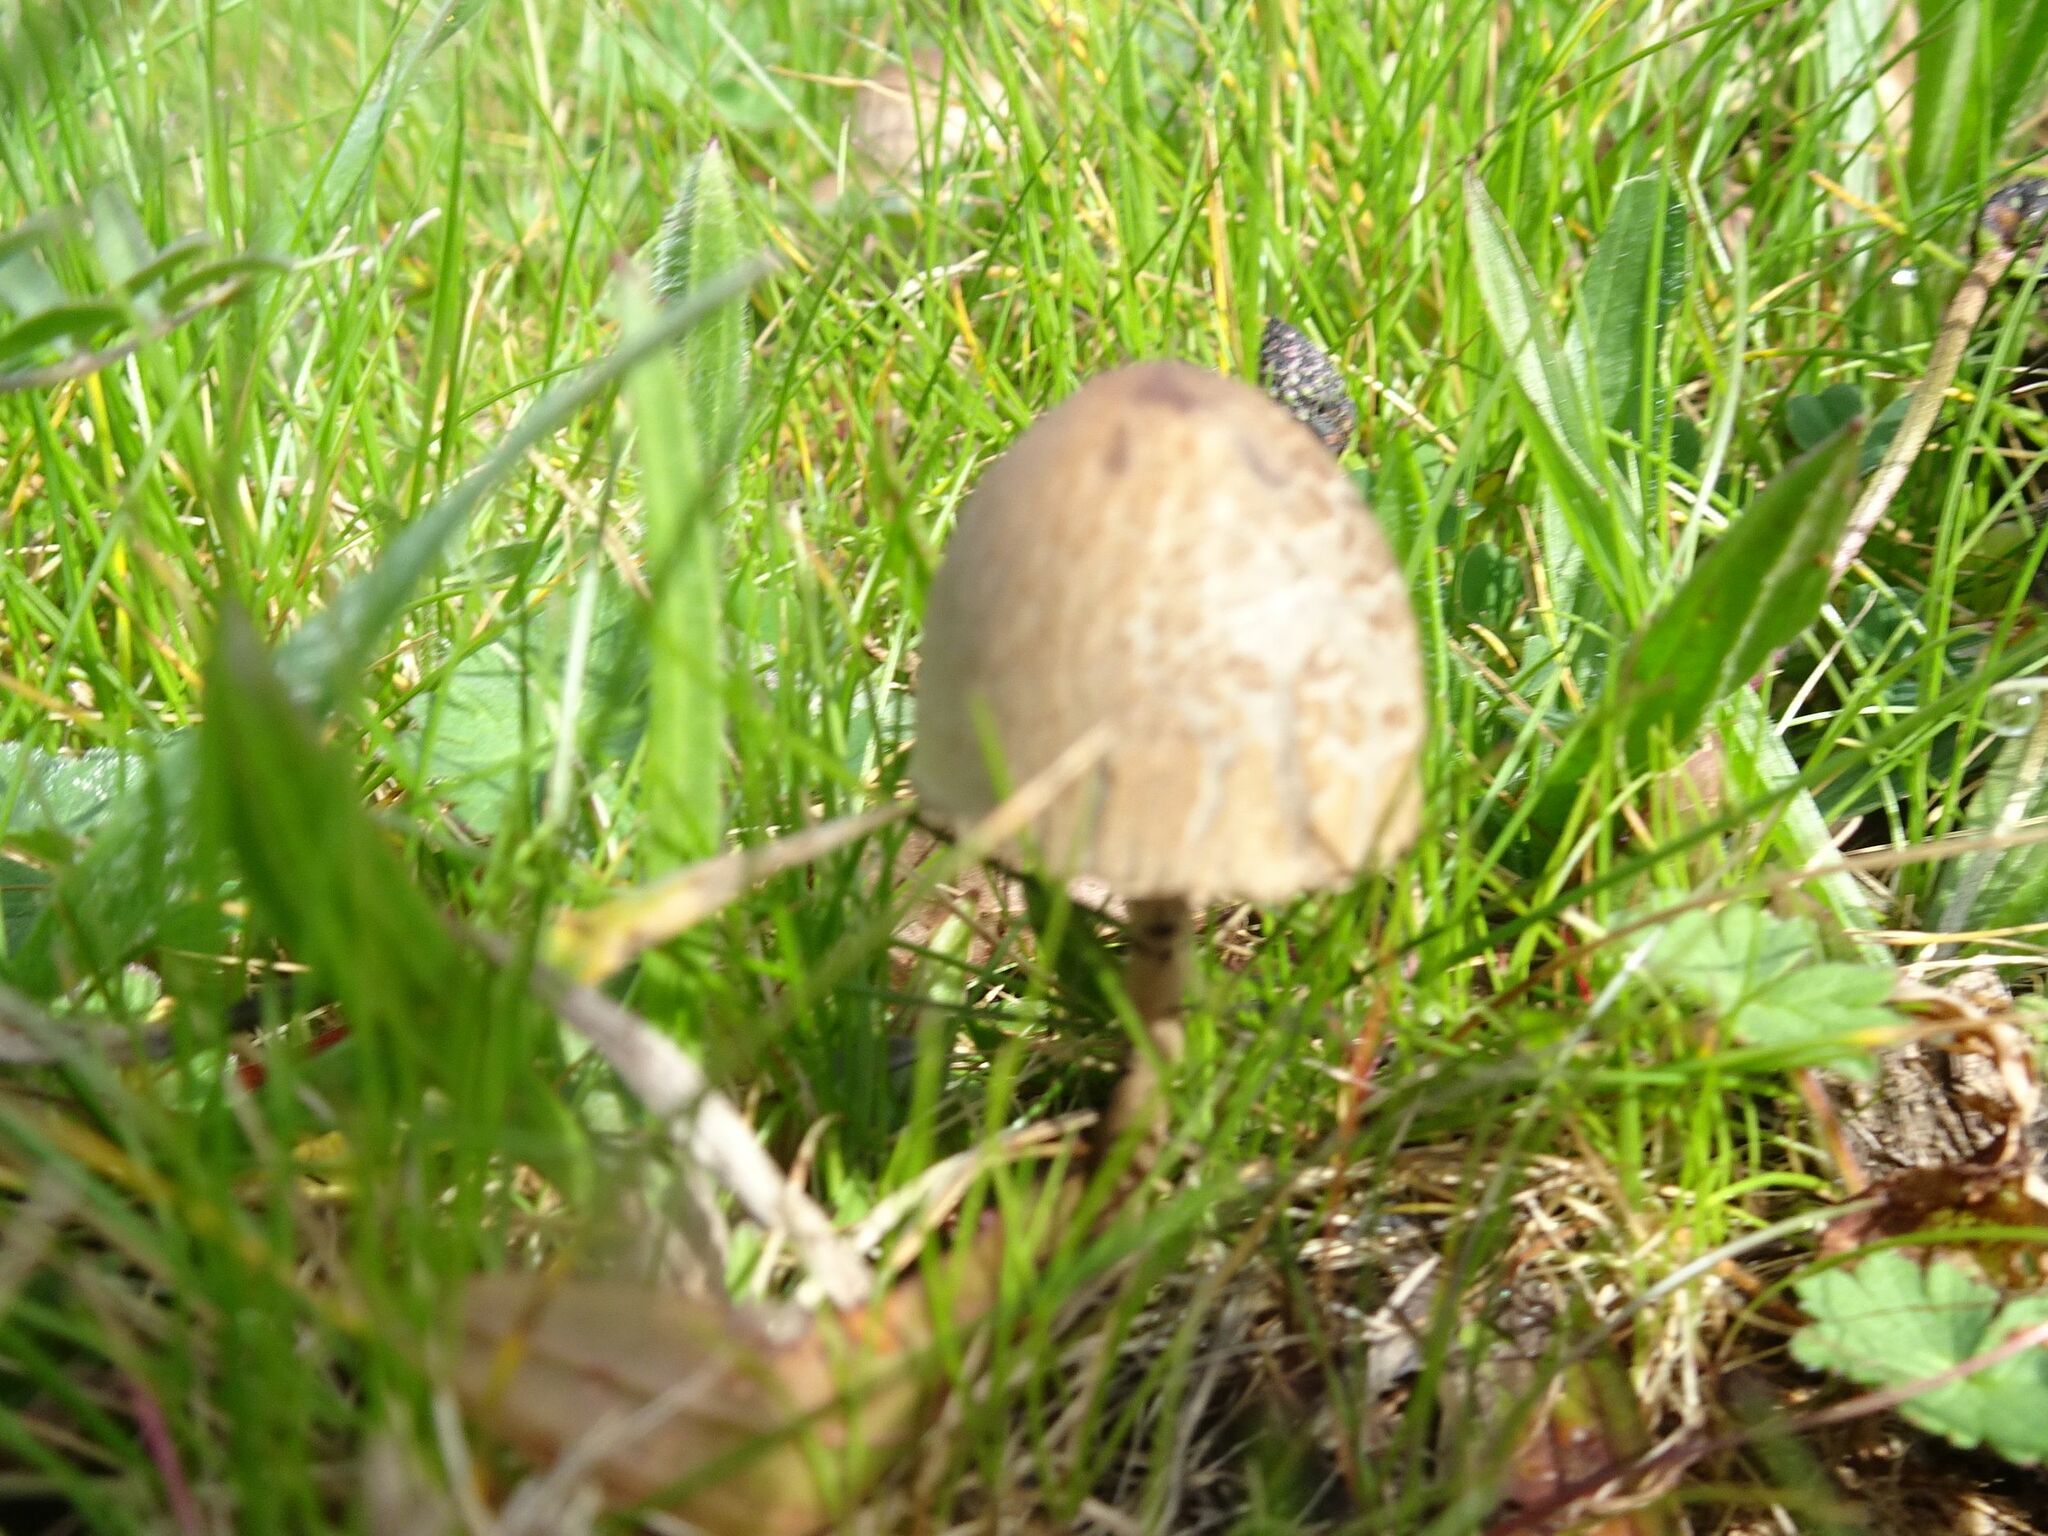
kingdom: Fungi
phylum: Basidiomycota
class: Agaricomycetes
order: Agaricales
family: Bolbitiaceae
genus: Panaeolus
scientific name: Panaeolus semiovatus
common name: Shiny mottlegill
